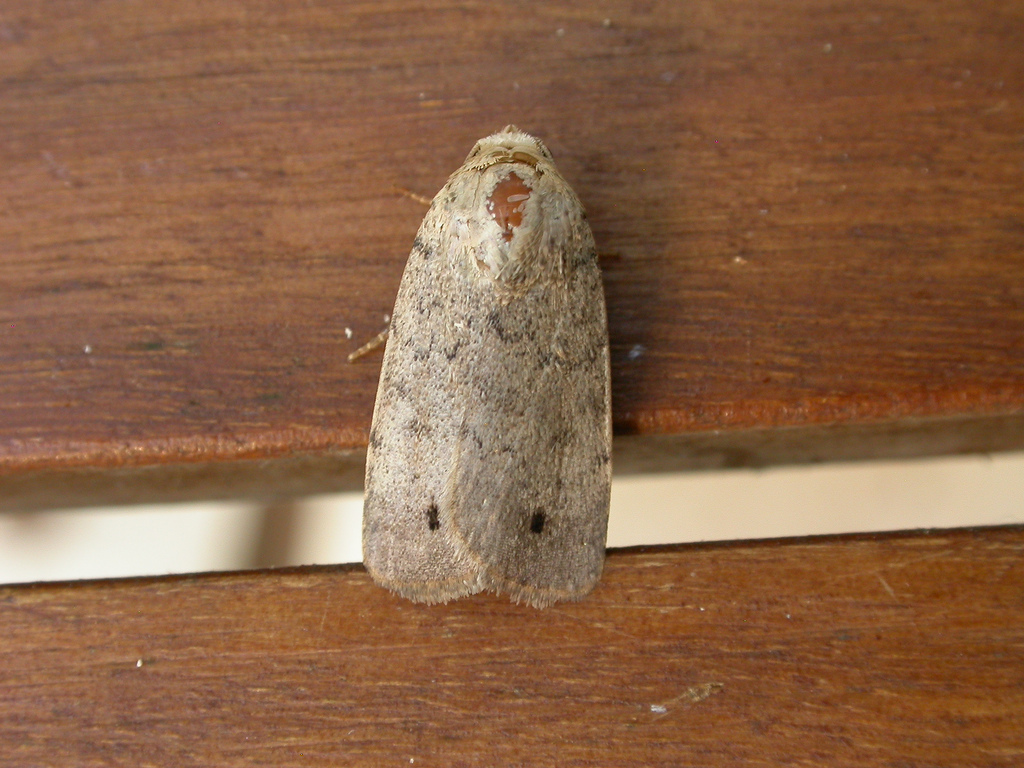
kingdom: Animalia
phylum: Arthropoda
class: Insecta
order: Lepidoptera
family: Noctuidae
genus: Athetis
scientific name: Athetis maculatra
